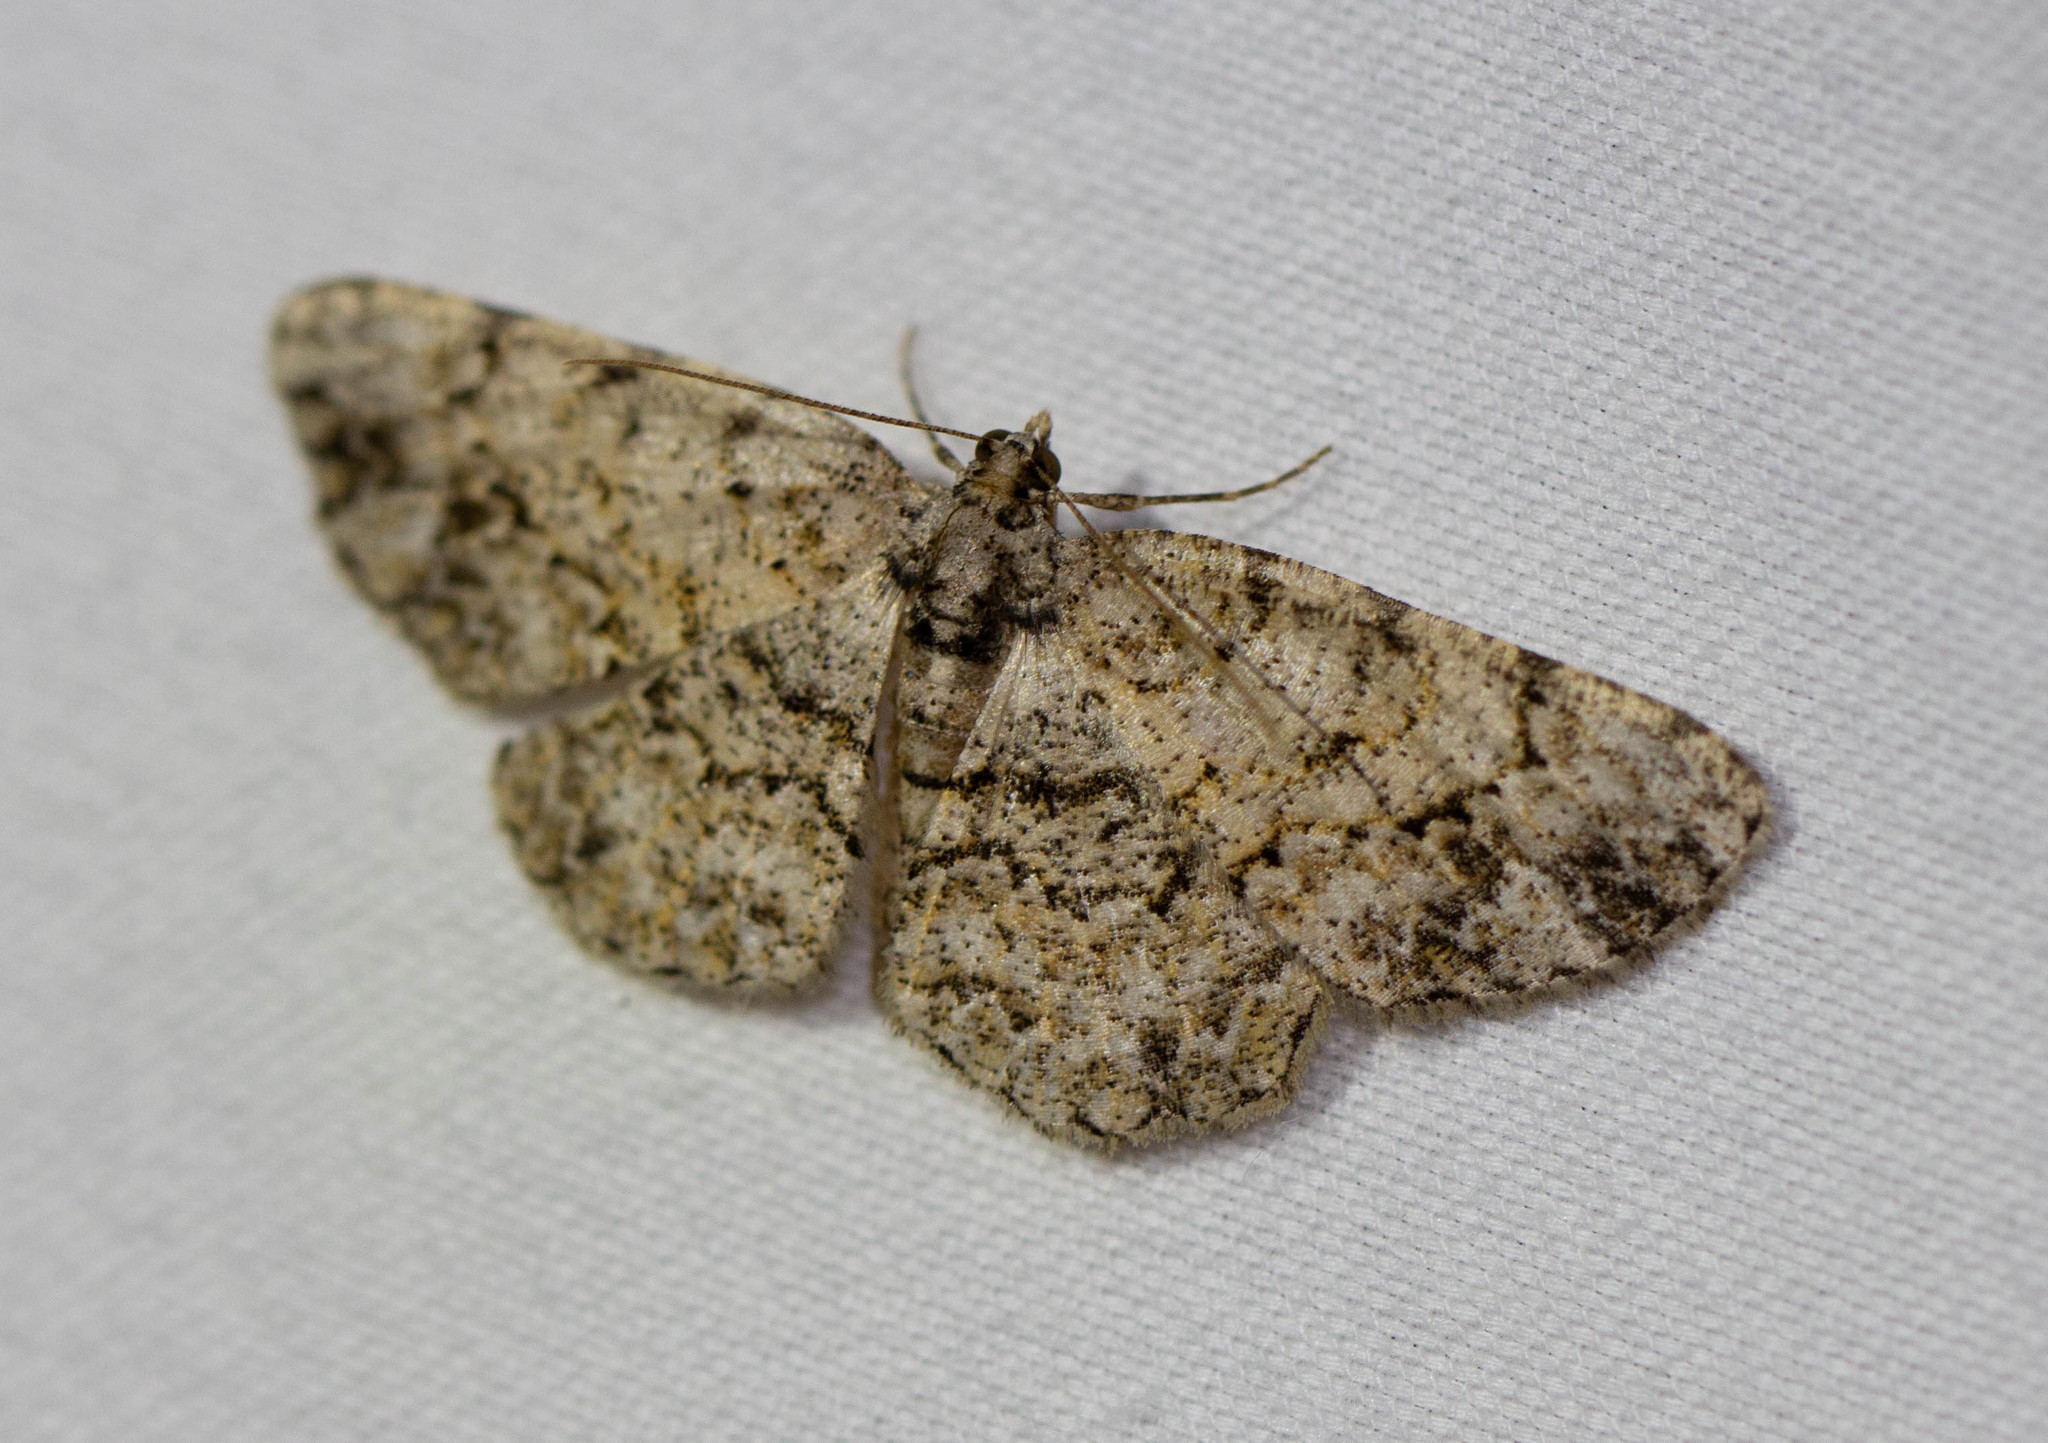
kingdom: Animalia
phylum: Arthropoda
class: Insecta
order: Lepidoptera
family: Geometridae
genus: Protoboarmia
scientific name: Protoboarmia porcelaria
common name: Porcelain gray
